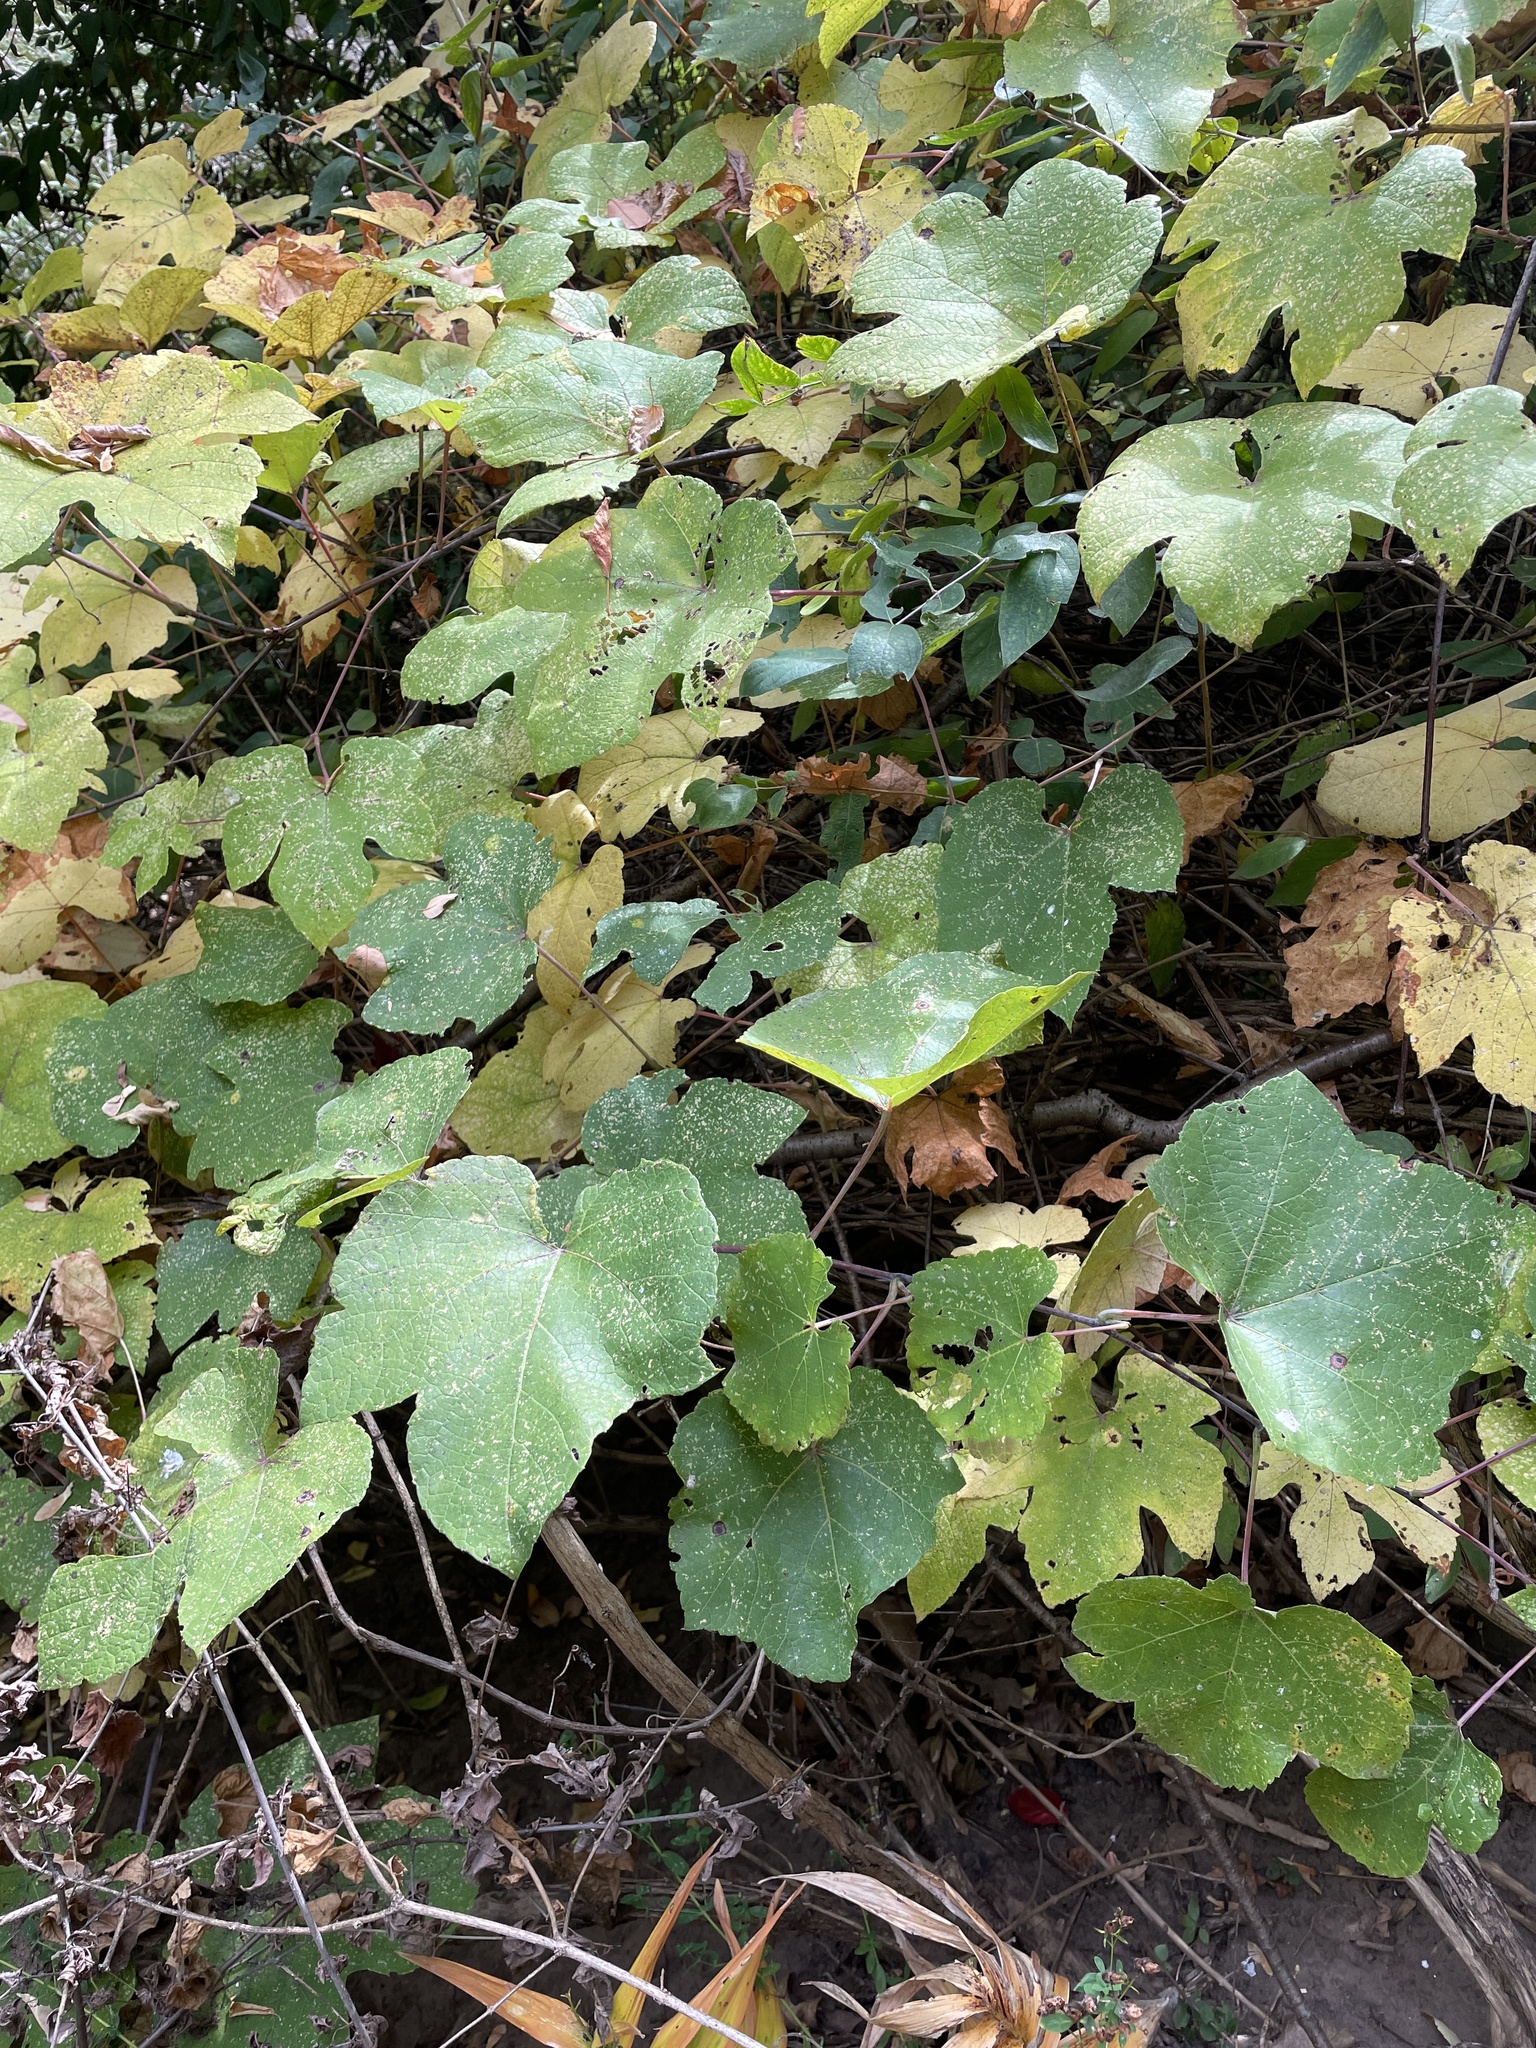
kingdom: Plantae
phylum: Tracheophyta
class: Magnoliopsida
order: Vitales
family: Vitaceae
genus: Vitis
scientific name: Vitis aestivalis
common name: Pigeon grape
